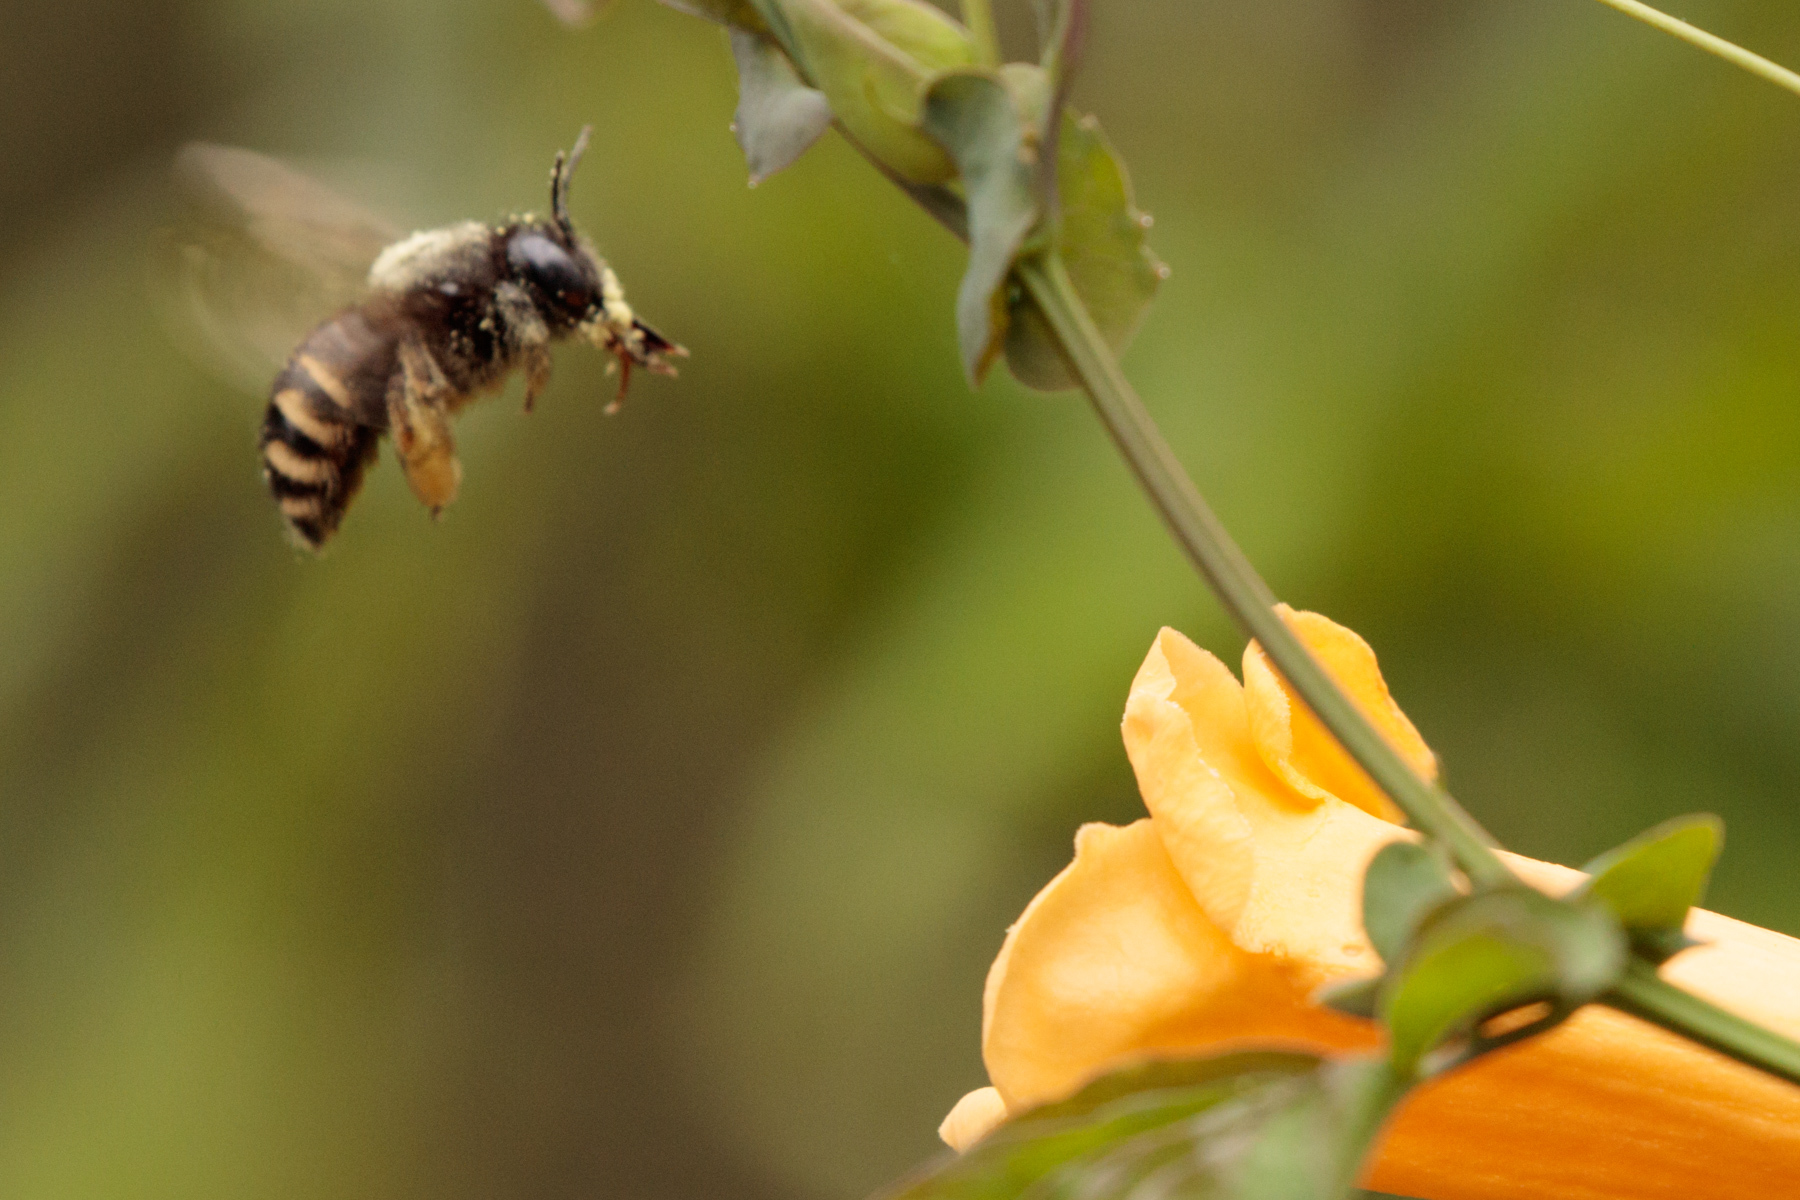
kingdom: Animalia
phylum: Arthropoda
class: Insecta
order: Hymenoptera
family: Apidae
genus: Xylocopa
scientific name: Xylocopa tabaniformis
